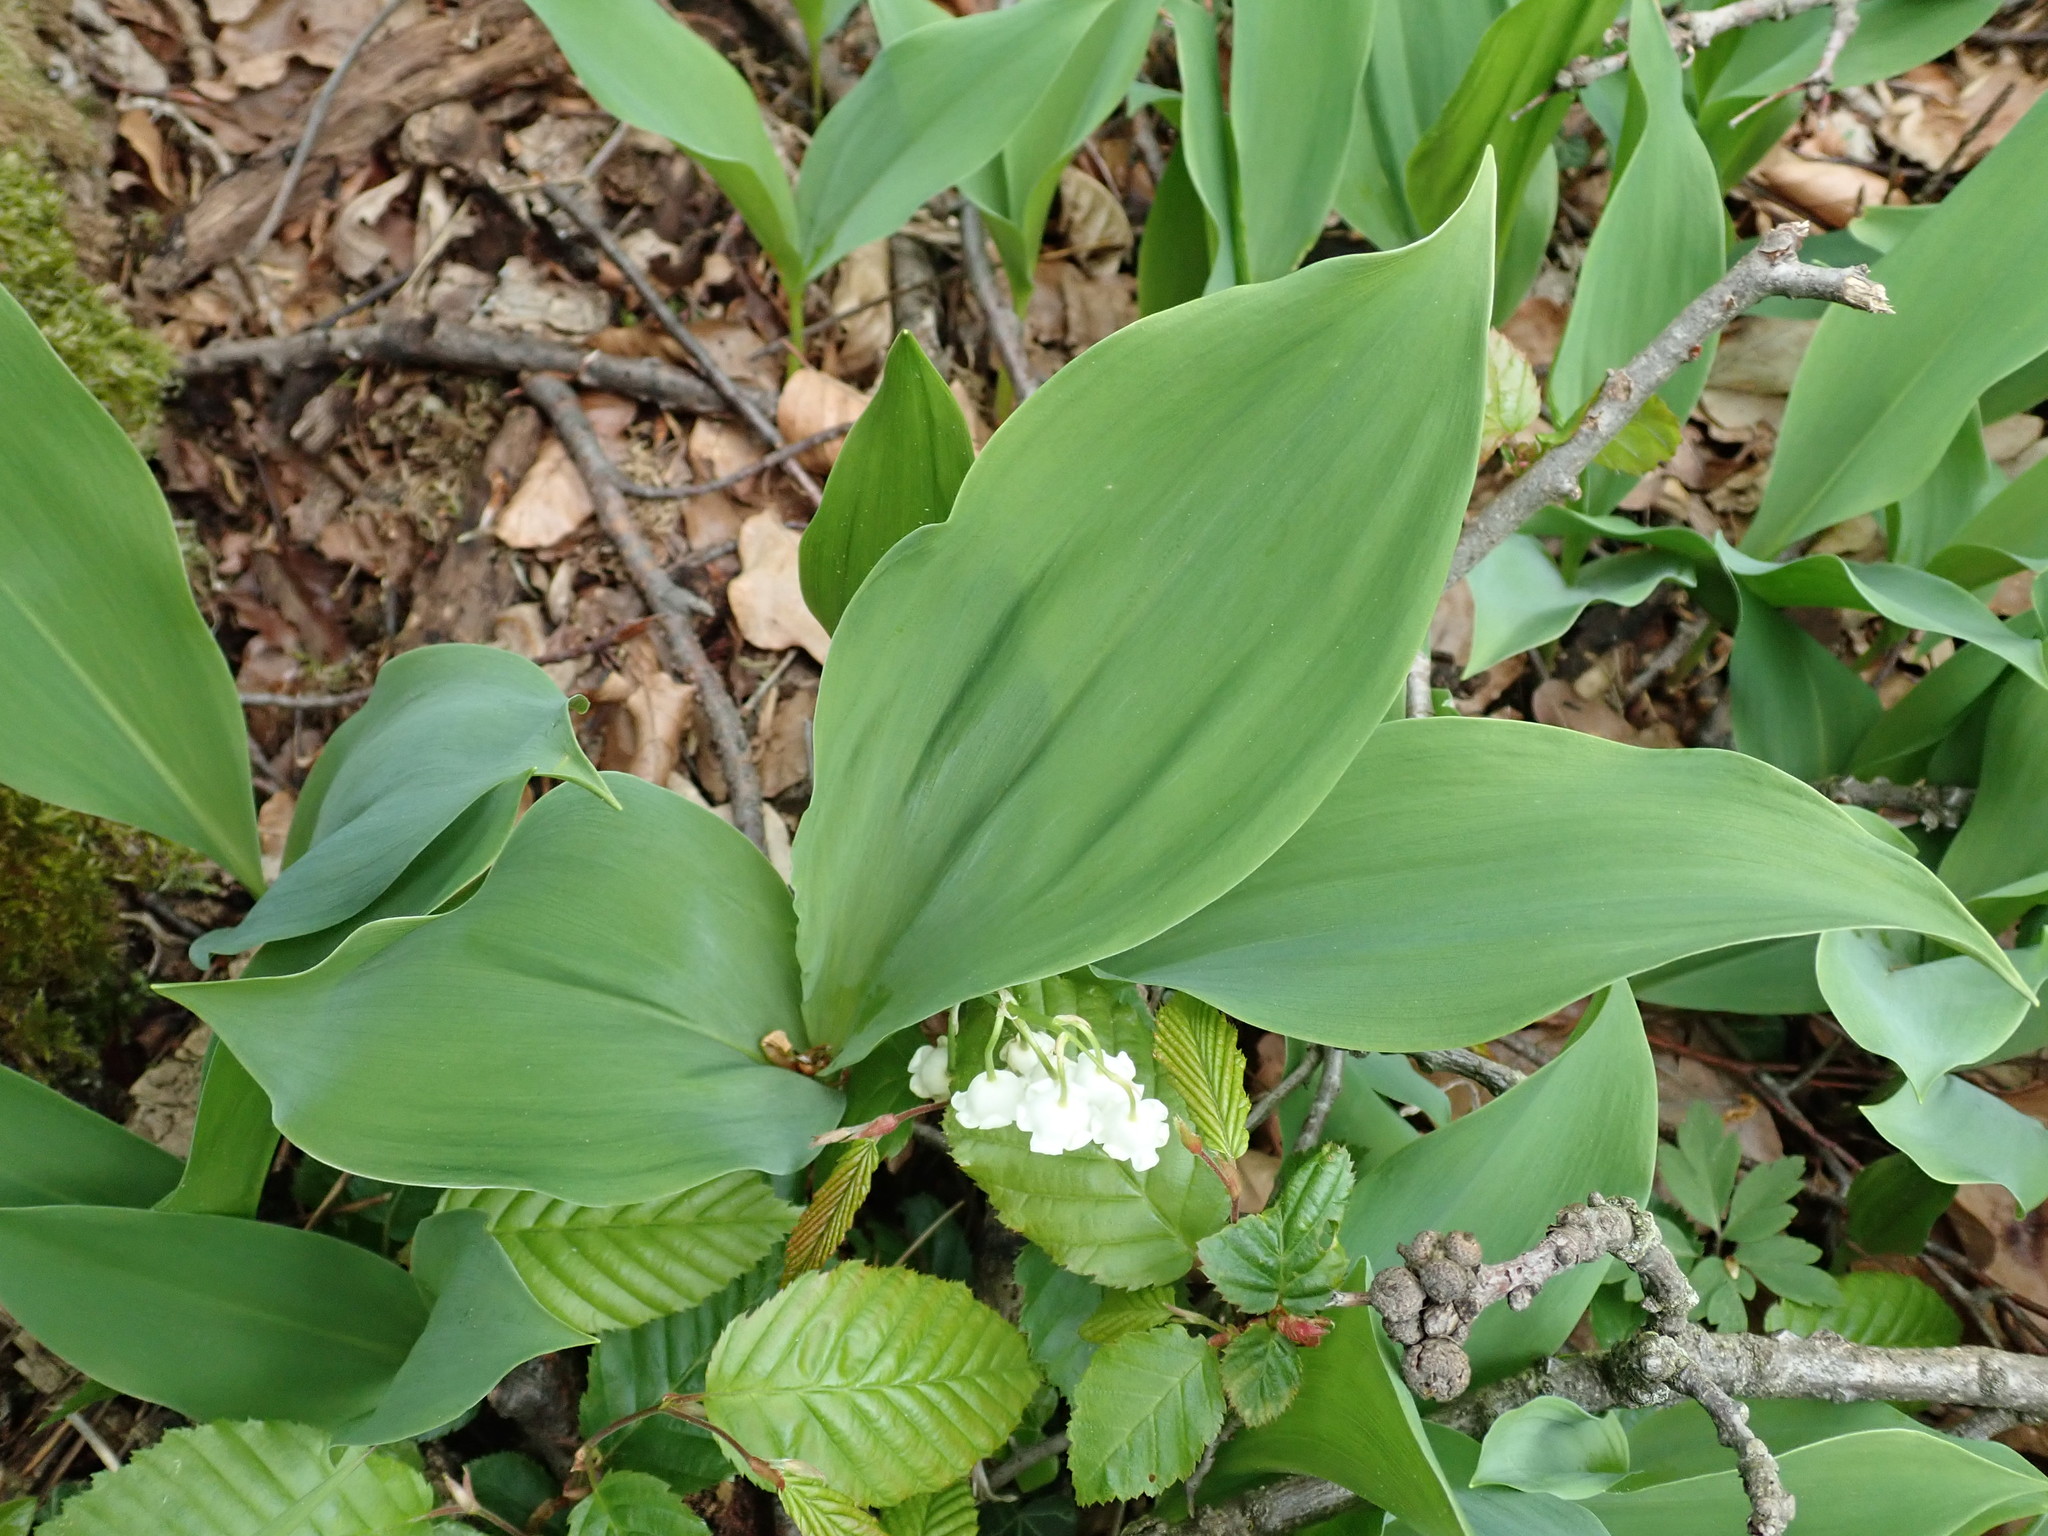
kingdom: Plantae
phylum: Tracheophyta
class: Liliopsida
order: Asparagales
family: Asparagaceae
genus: Convallaria
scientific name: Convallaria majalis
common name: Lily-of-the-valley
